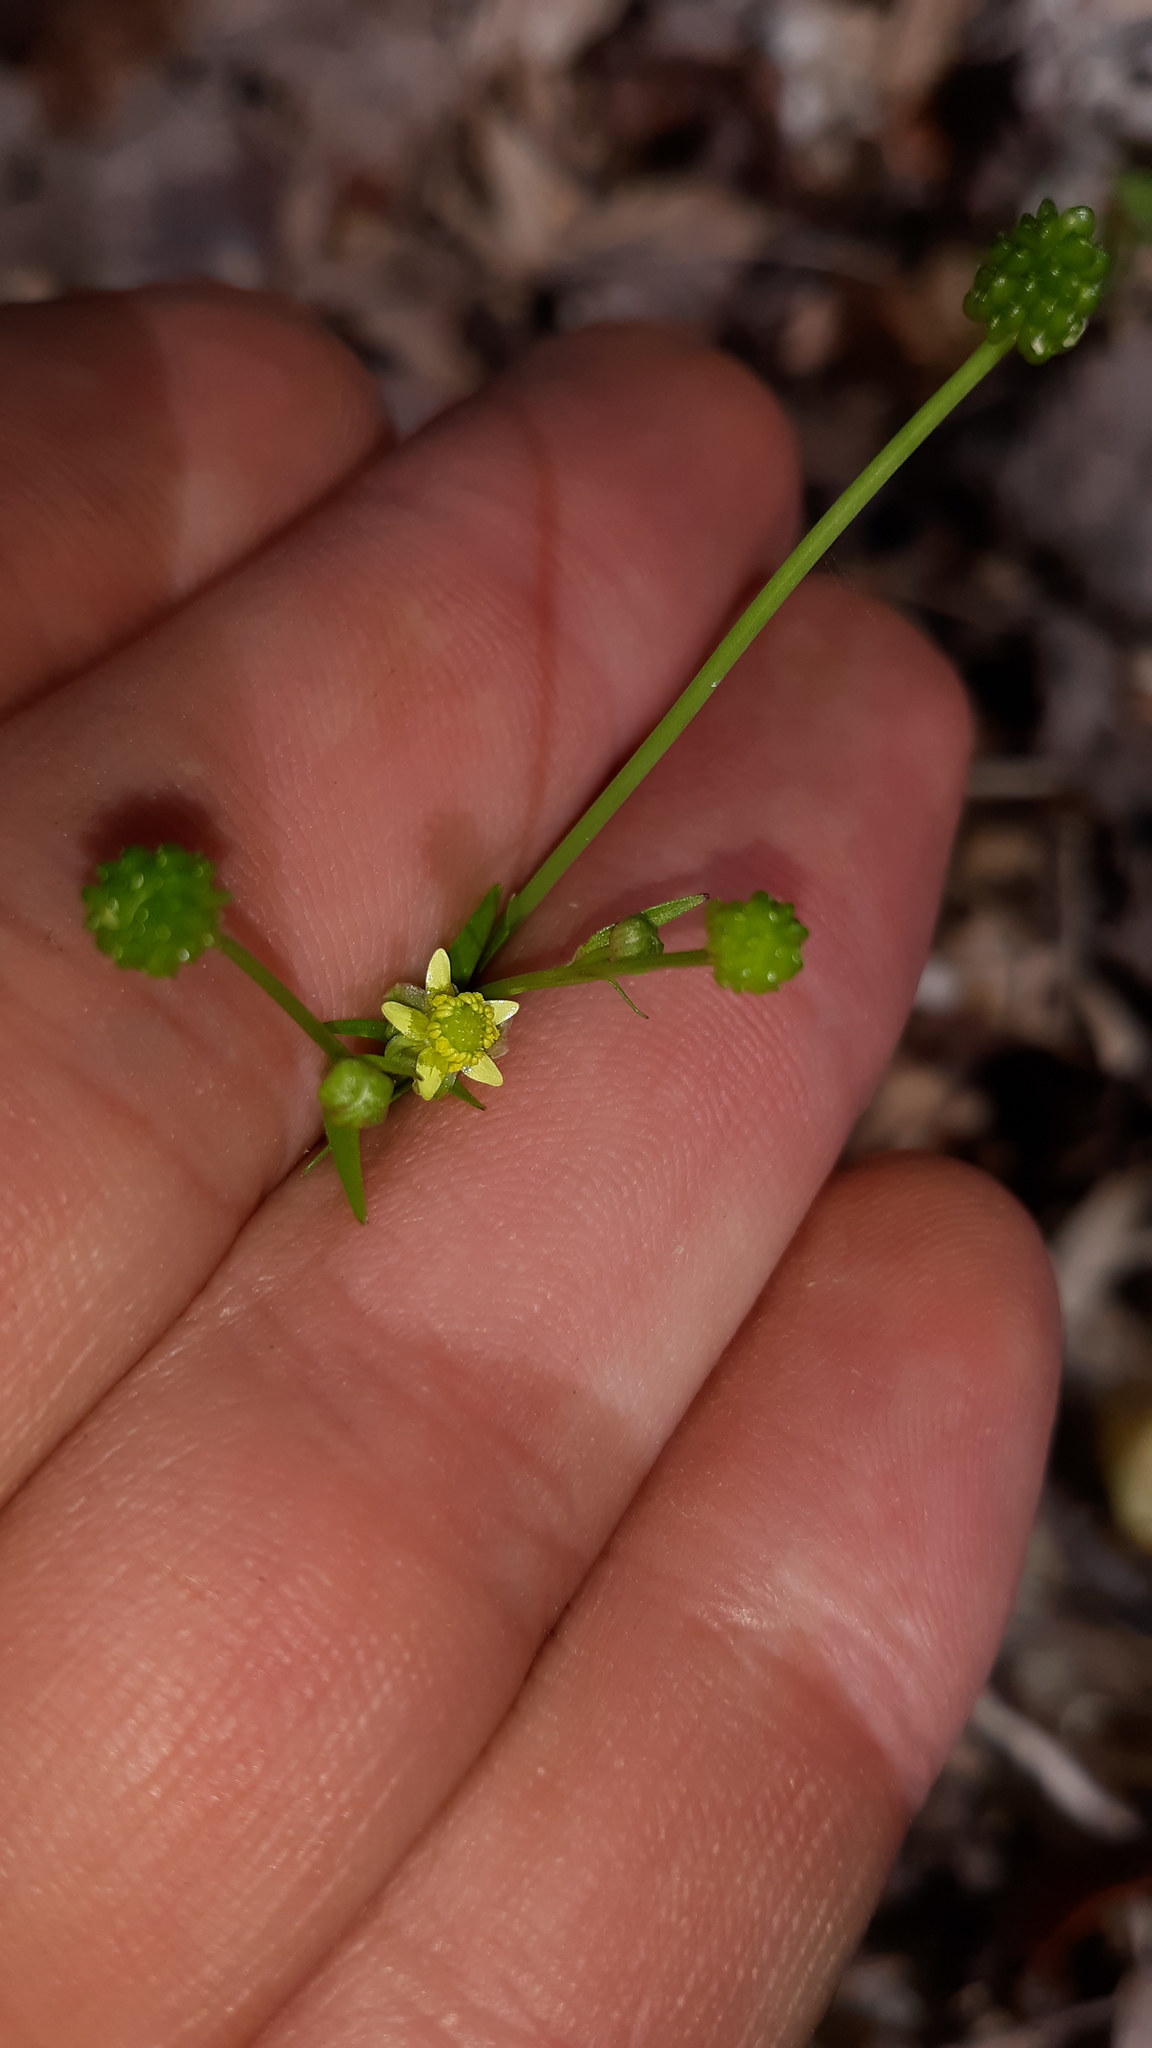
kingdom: Plantae
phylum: Tracheophyta
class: Magnoliopsida
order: Ranunculales
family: Ranunculaceae
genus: Ranunculus
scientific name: Ranunculus abortivus
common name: Early wood buttercup
